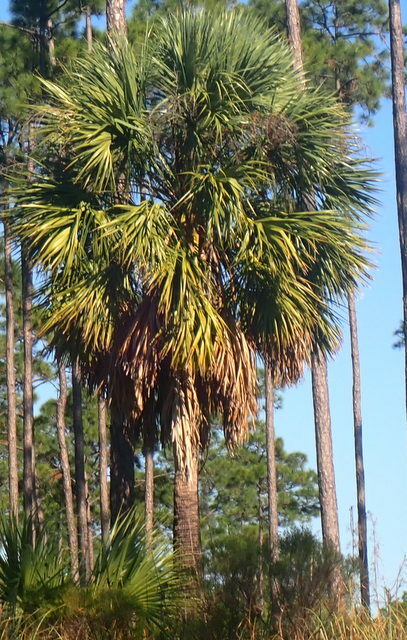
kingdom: Plantae
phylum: Tracheophyta
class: Liliopsida
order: Arecales
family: Arecaceae
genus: Sabal
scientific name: Sabal palmetto
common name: Blue palmetto
